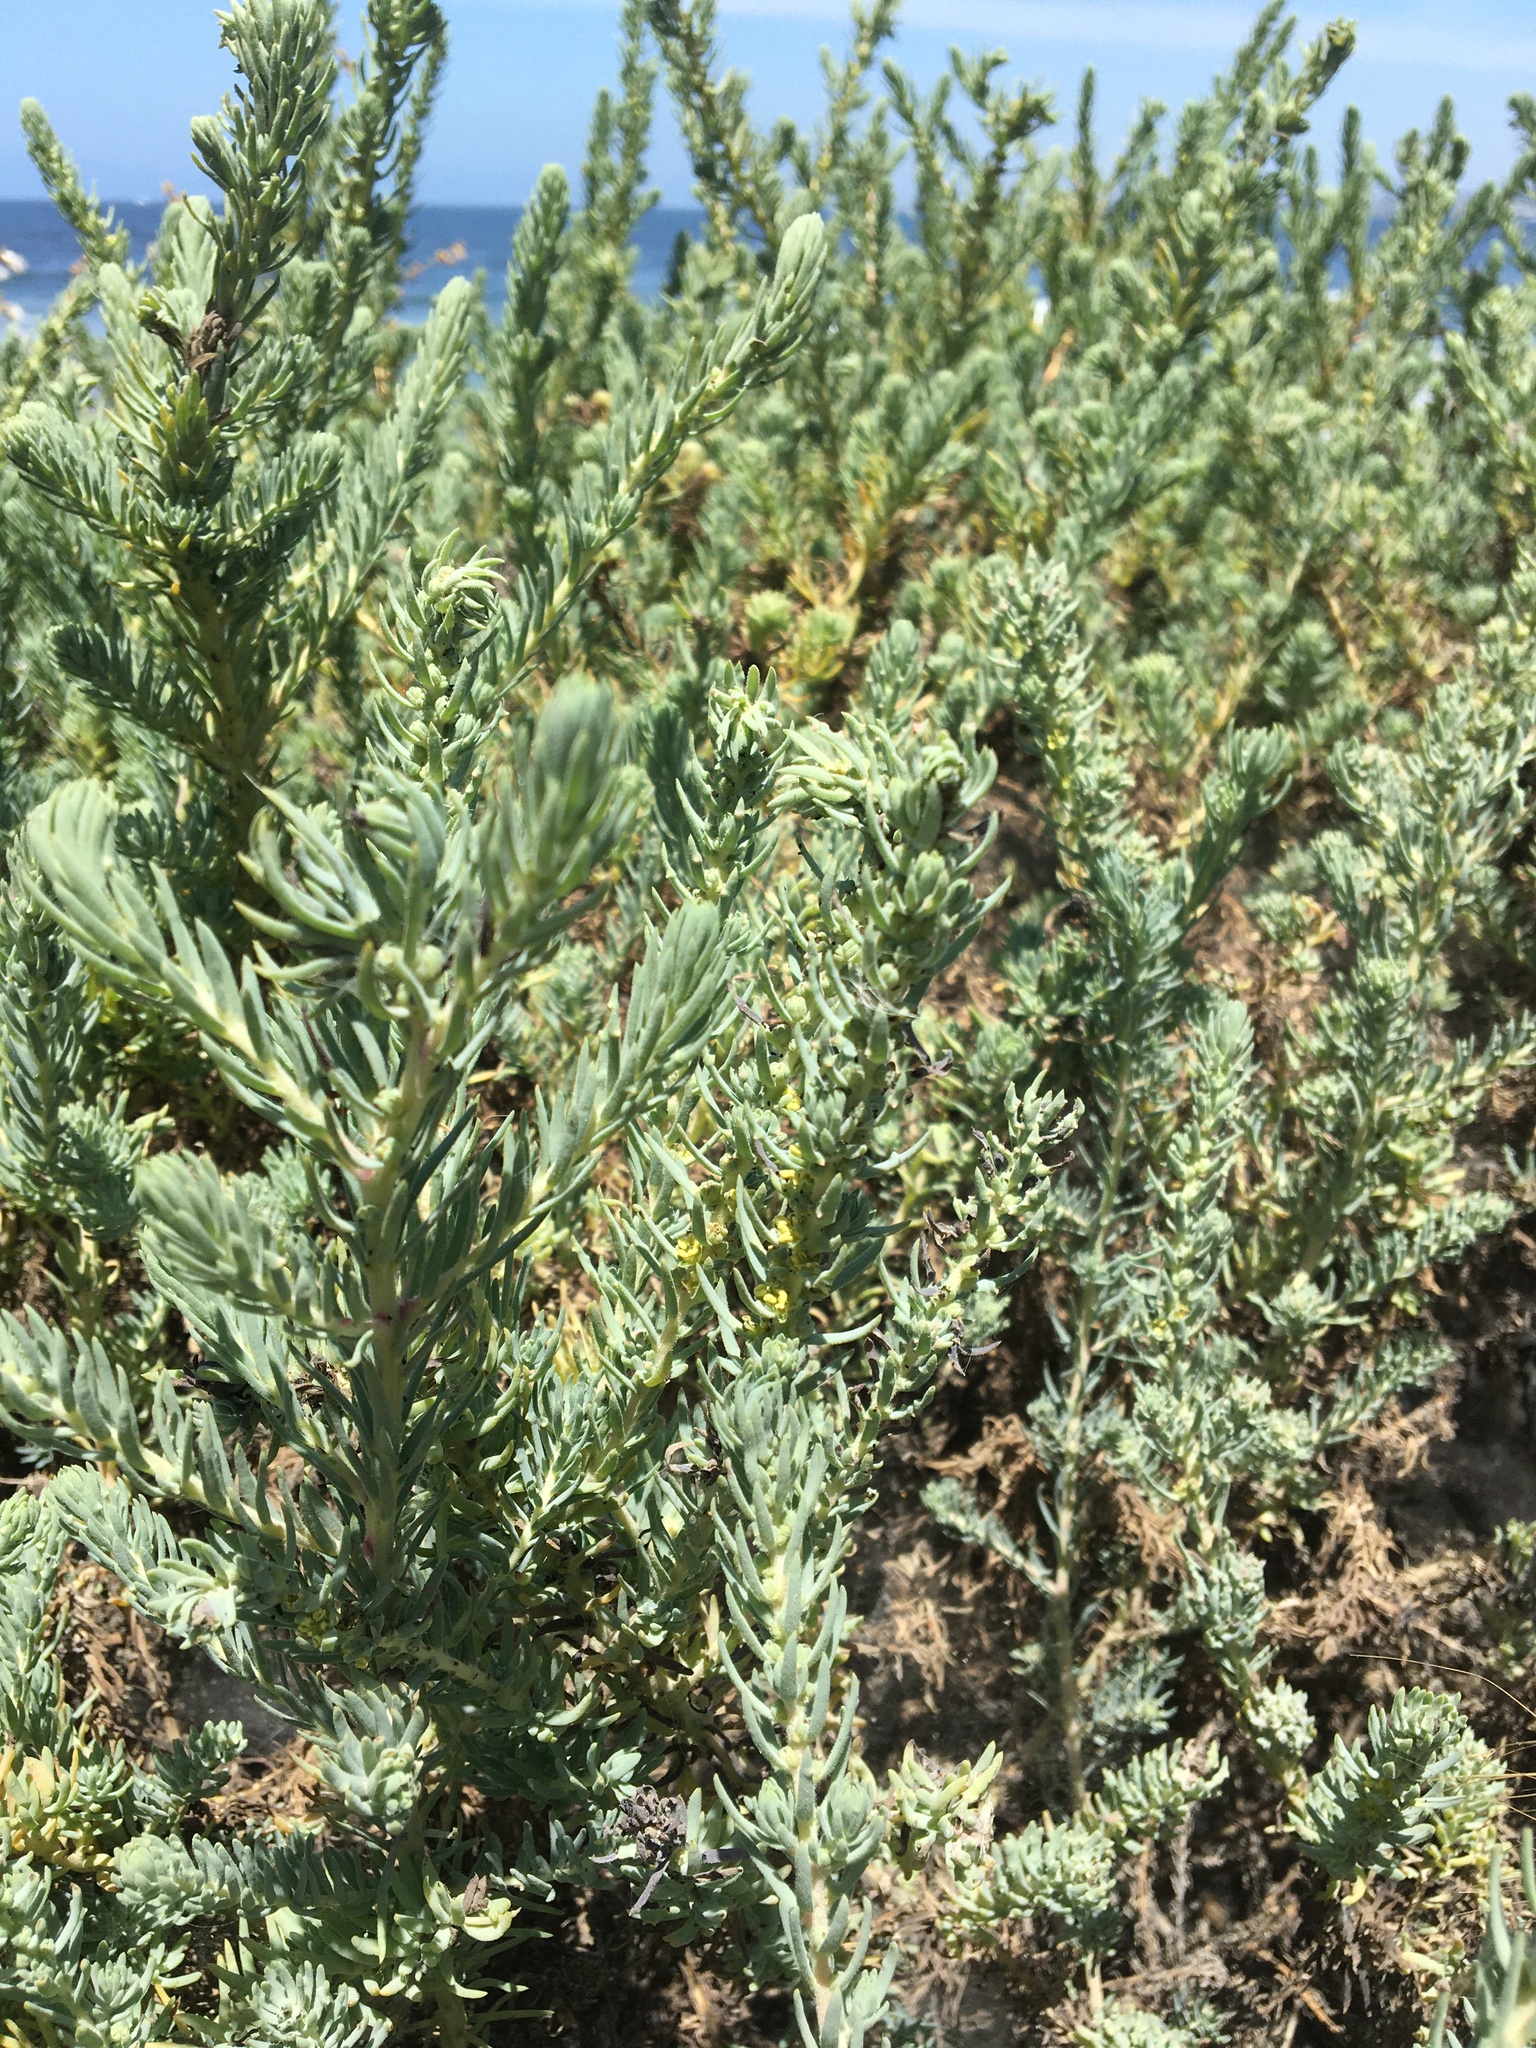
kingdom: Plantae
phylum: Tracheophyta
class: Magnoliopsida
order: Caryophyllales
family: Amaranthaceae
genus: Suaeda
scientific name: Suaeda taxifolia
